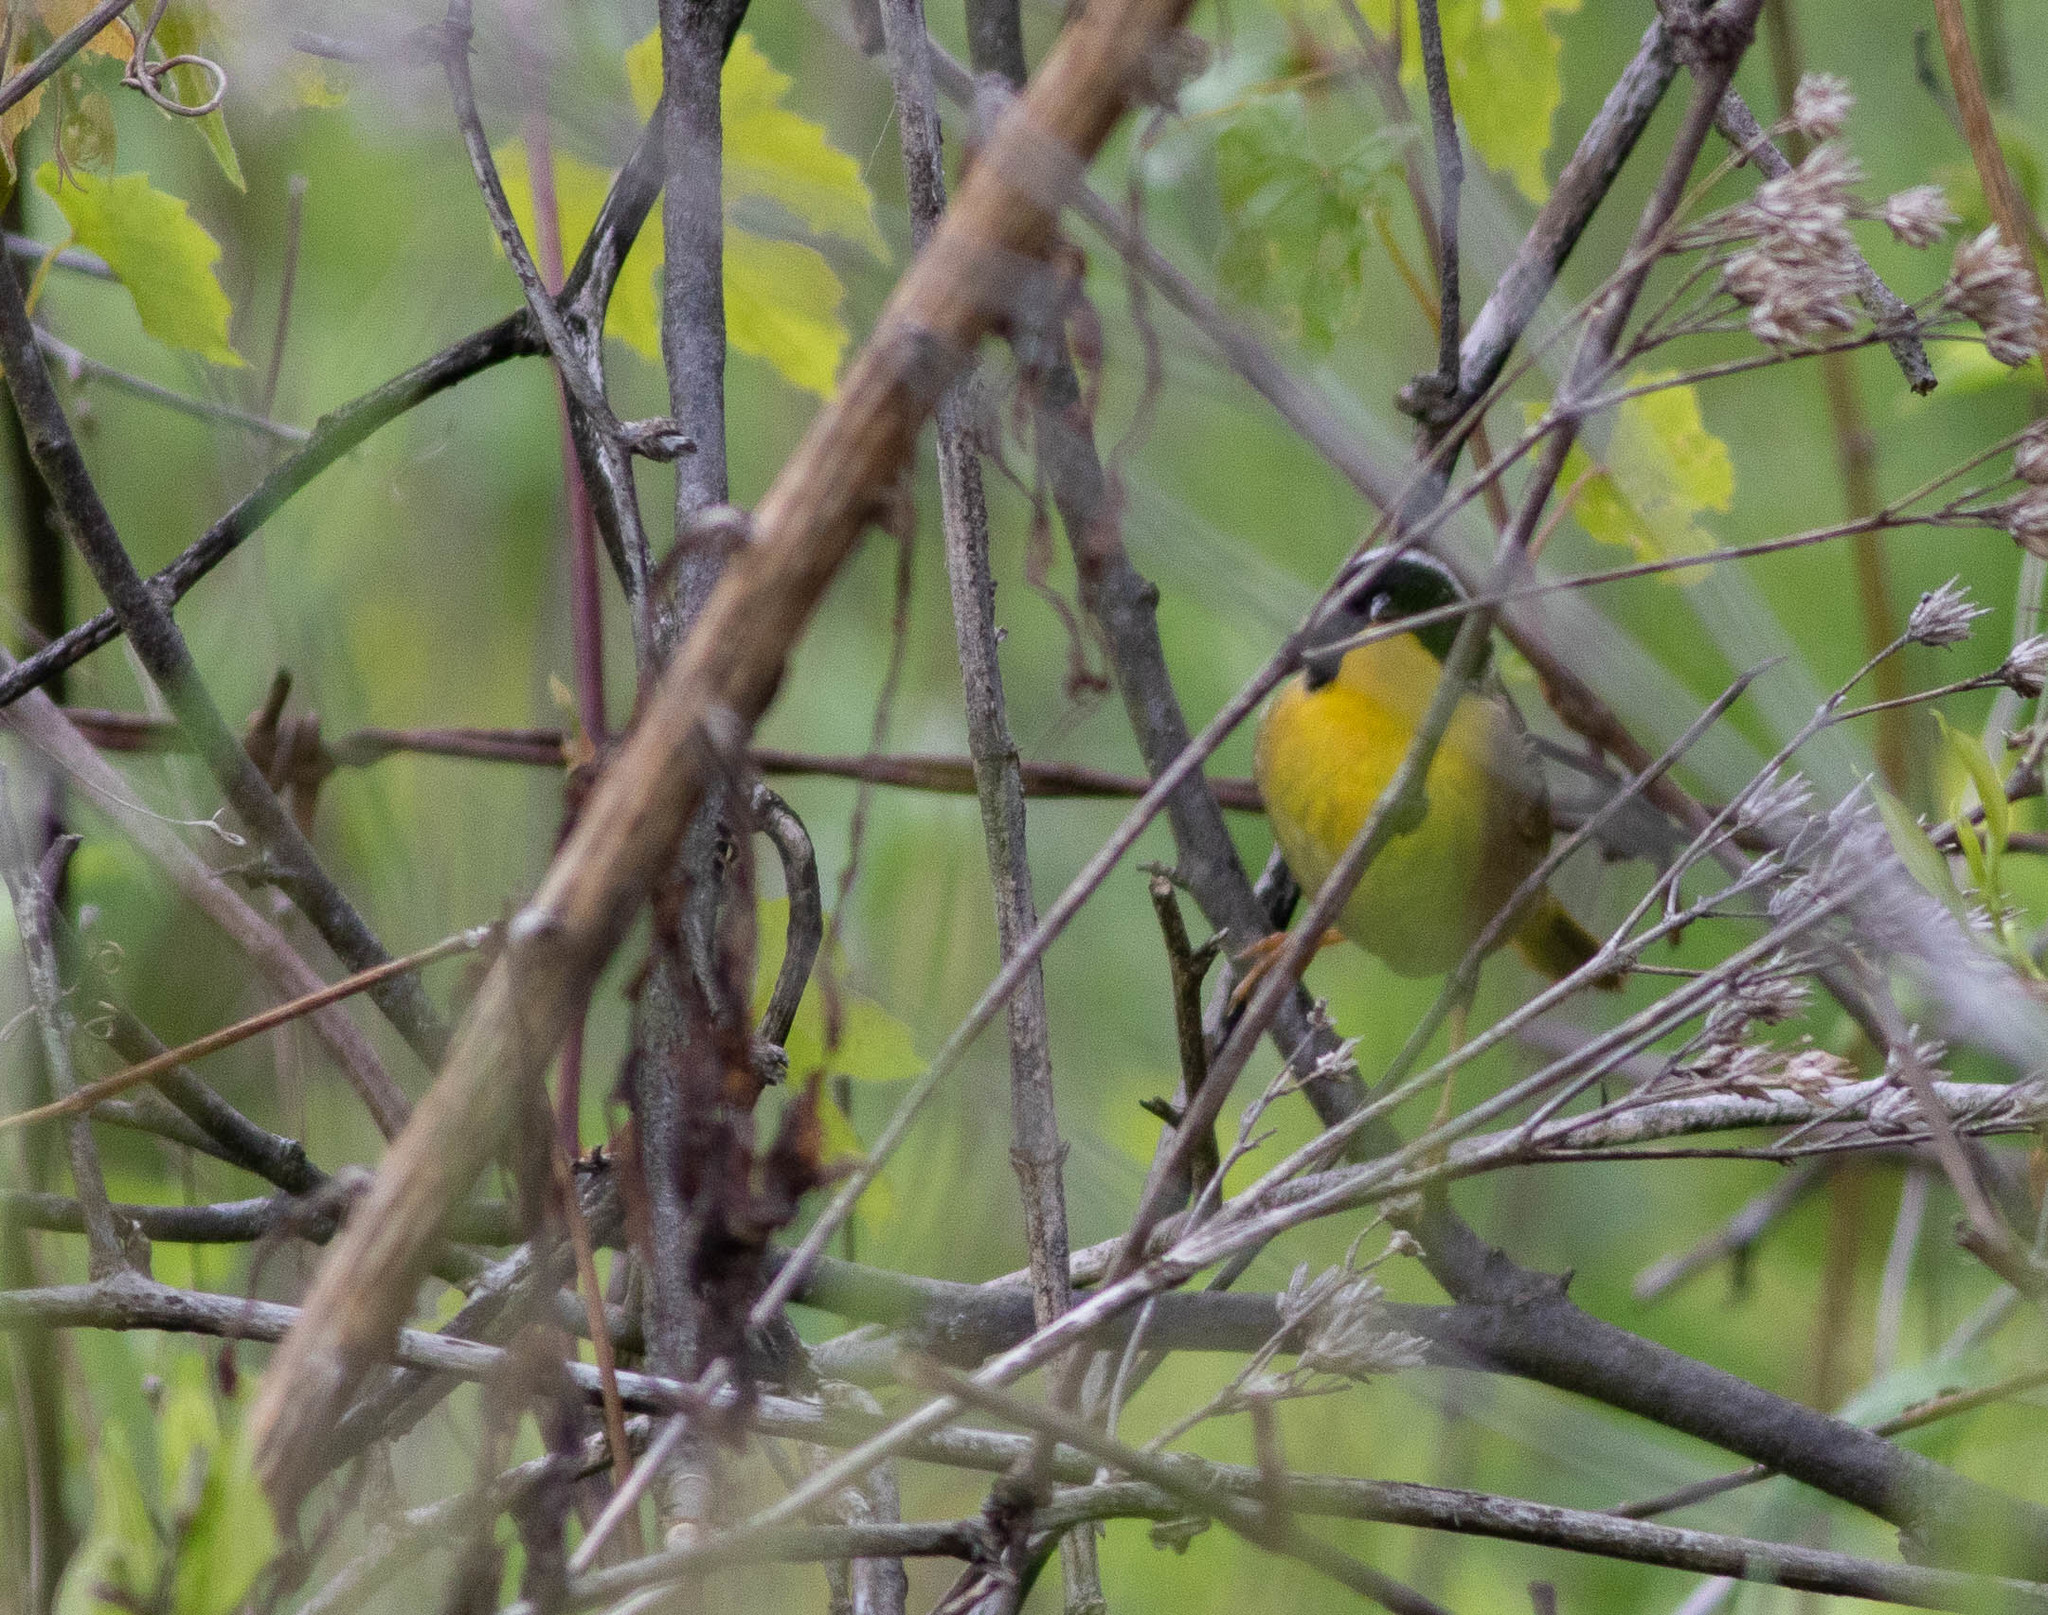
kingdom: Animalia
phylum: Chordata
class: Aves
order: Passeriformes
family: Parulidae
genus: Geothlypis
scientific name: Geothlypis trichas
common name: Common yellowthroat
